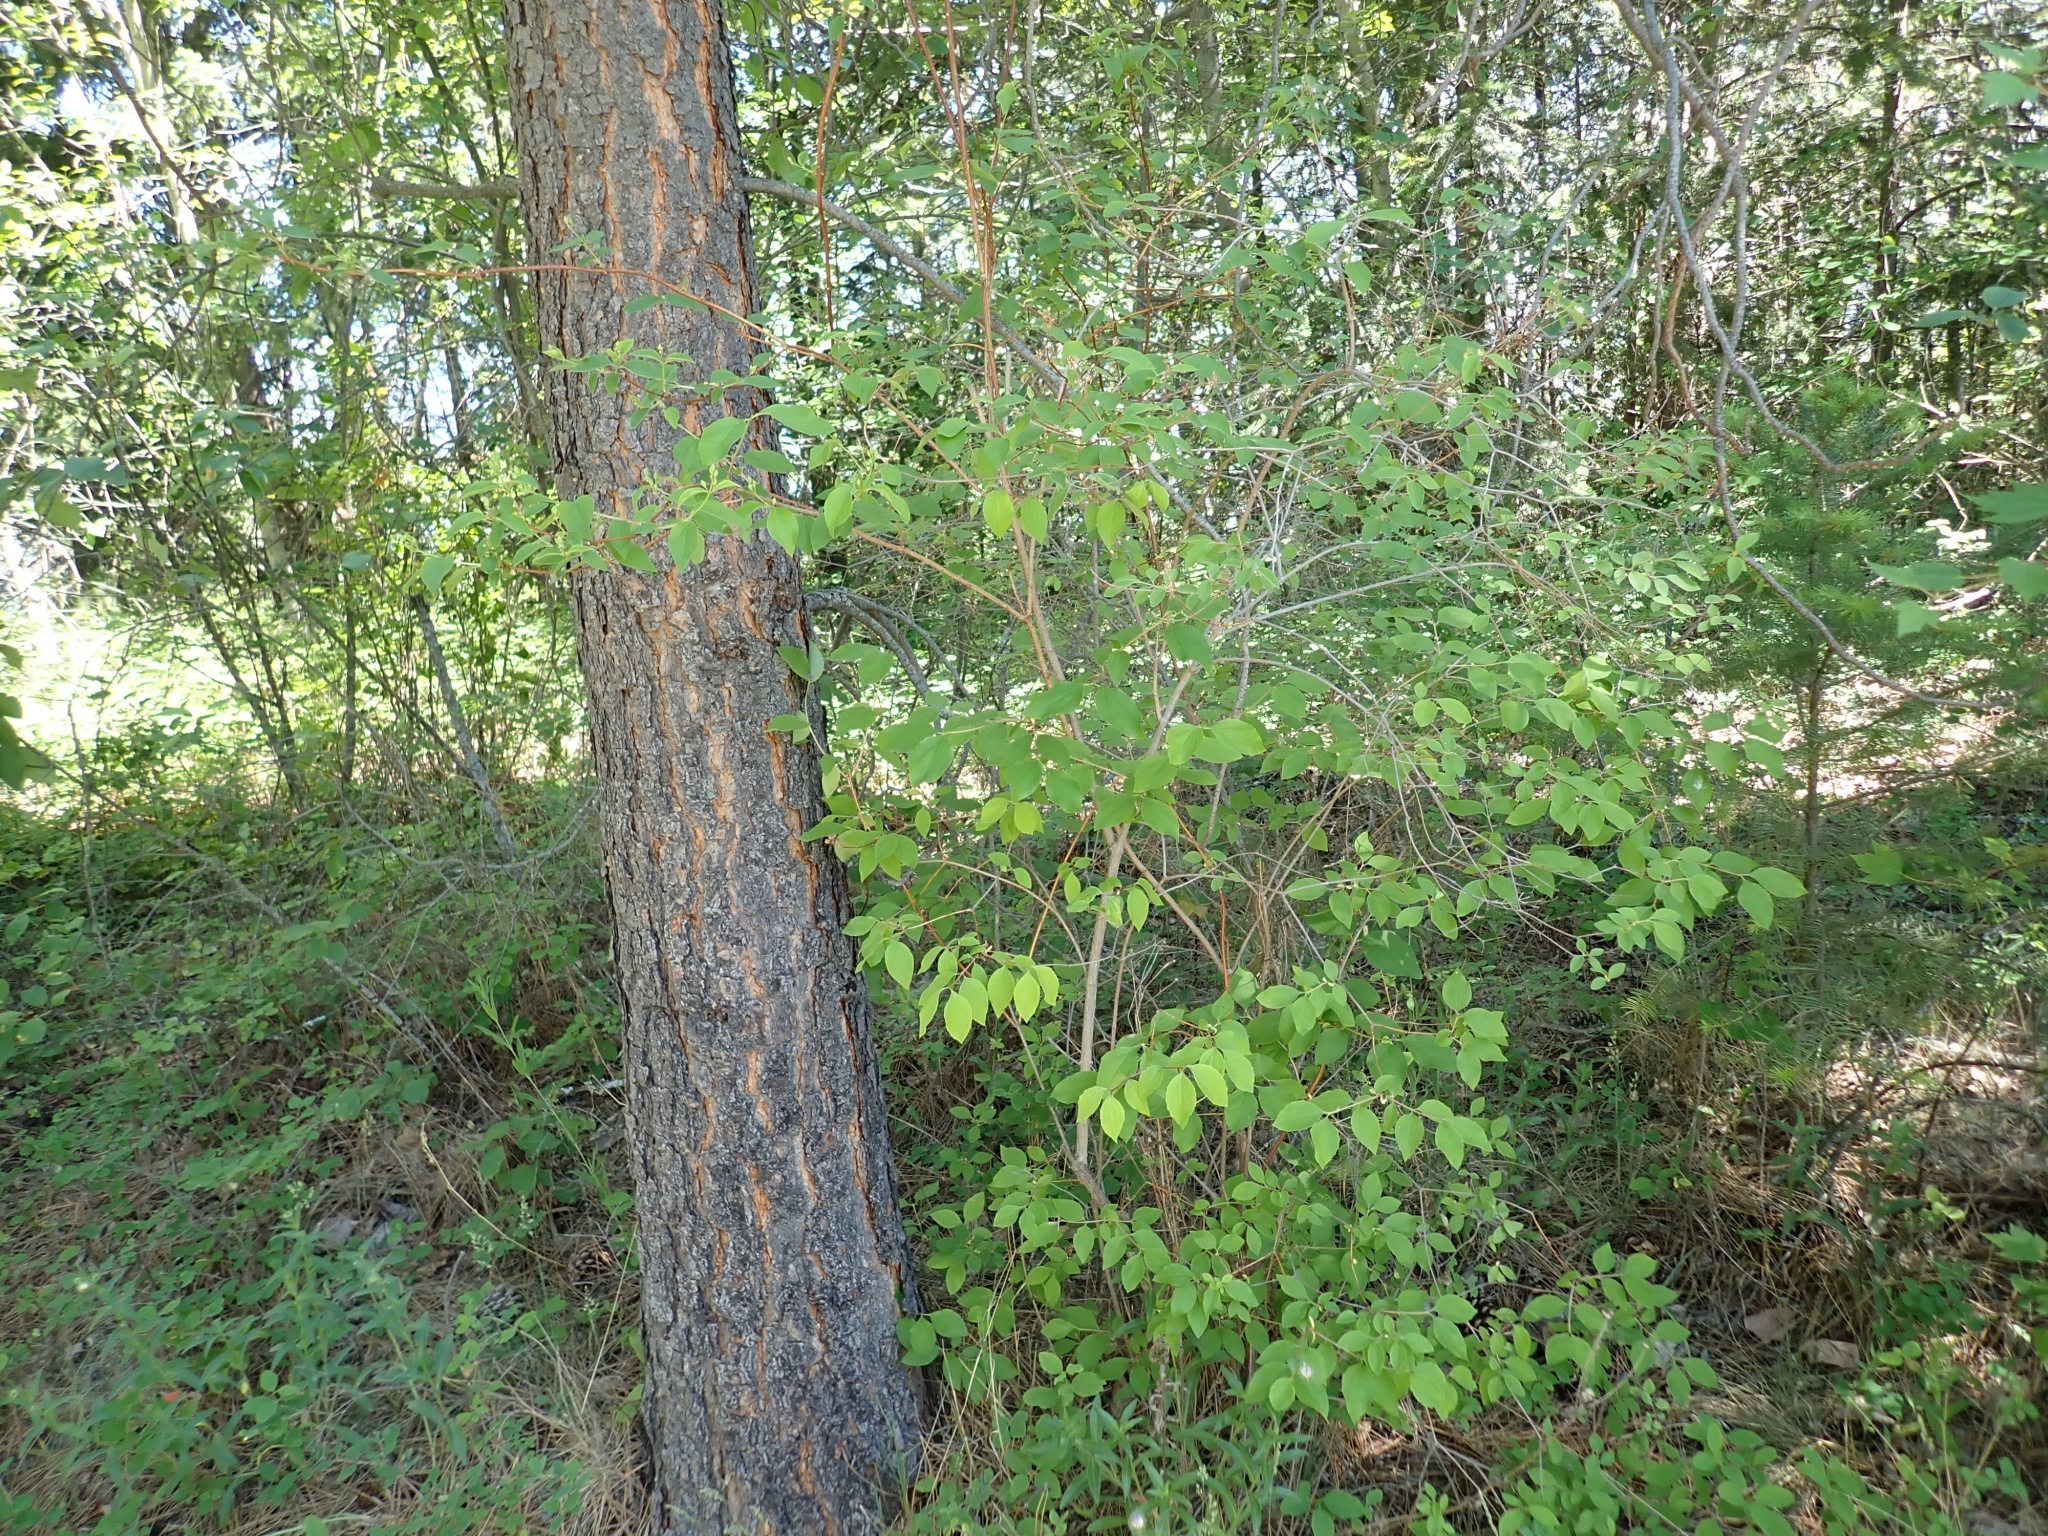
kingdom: Plantae
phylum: Tracheophyta
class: Magnoliopsida
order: Cornales
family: Hydrangeaceae
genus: Philadelphus
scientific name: Philadelphus lewisii
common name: Lewis's mock orange
